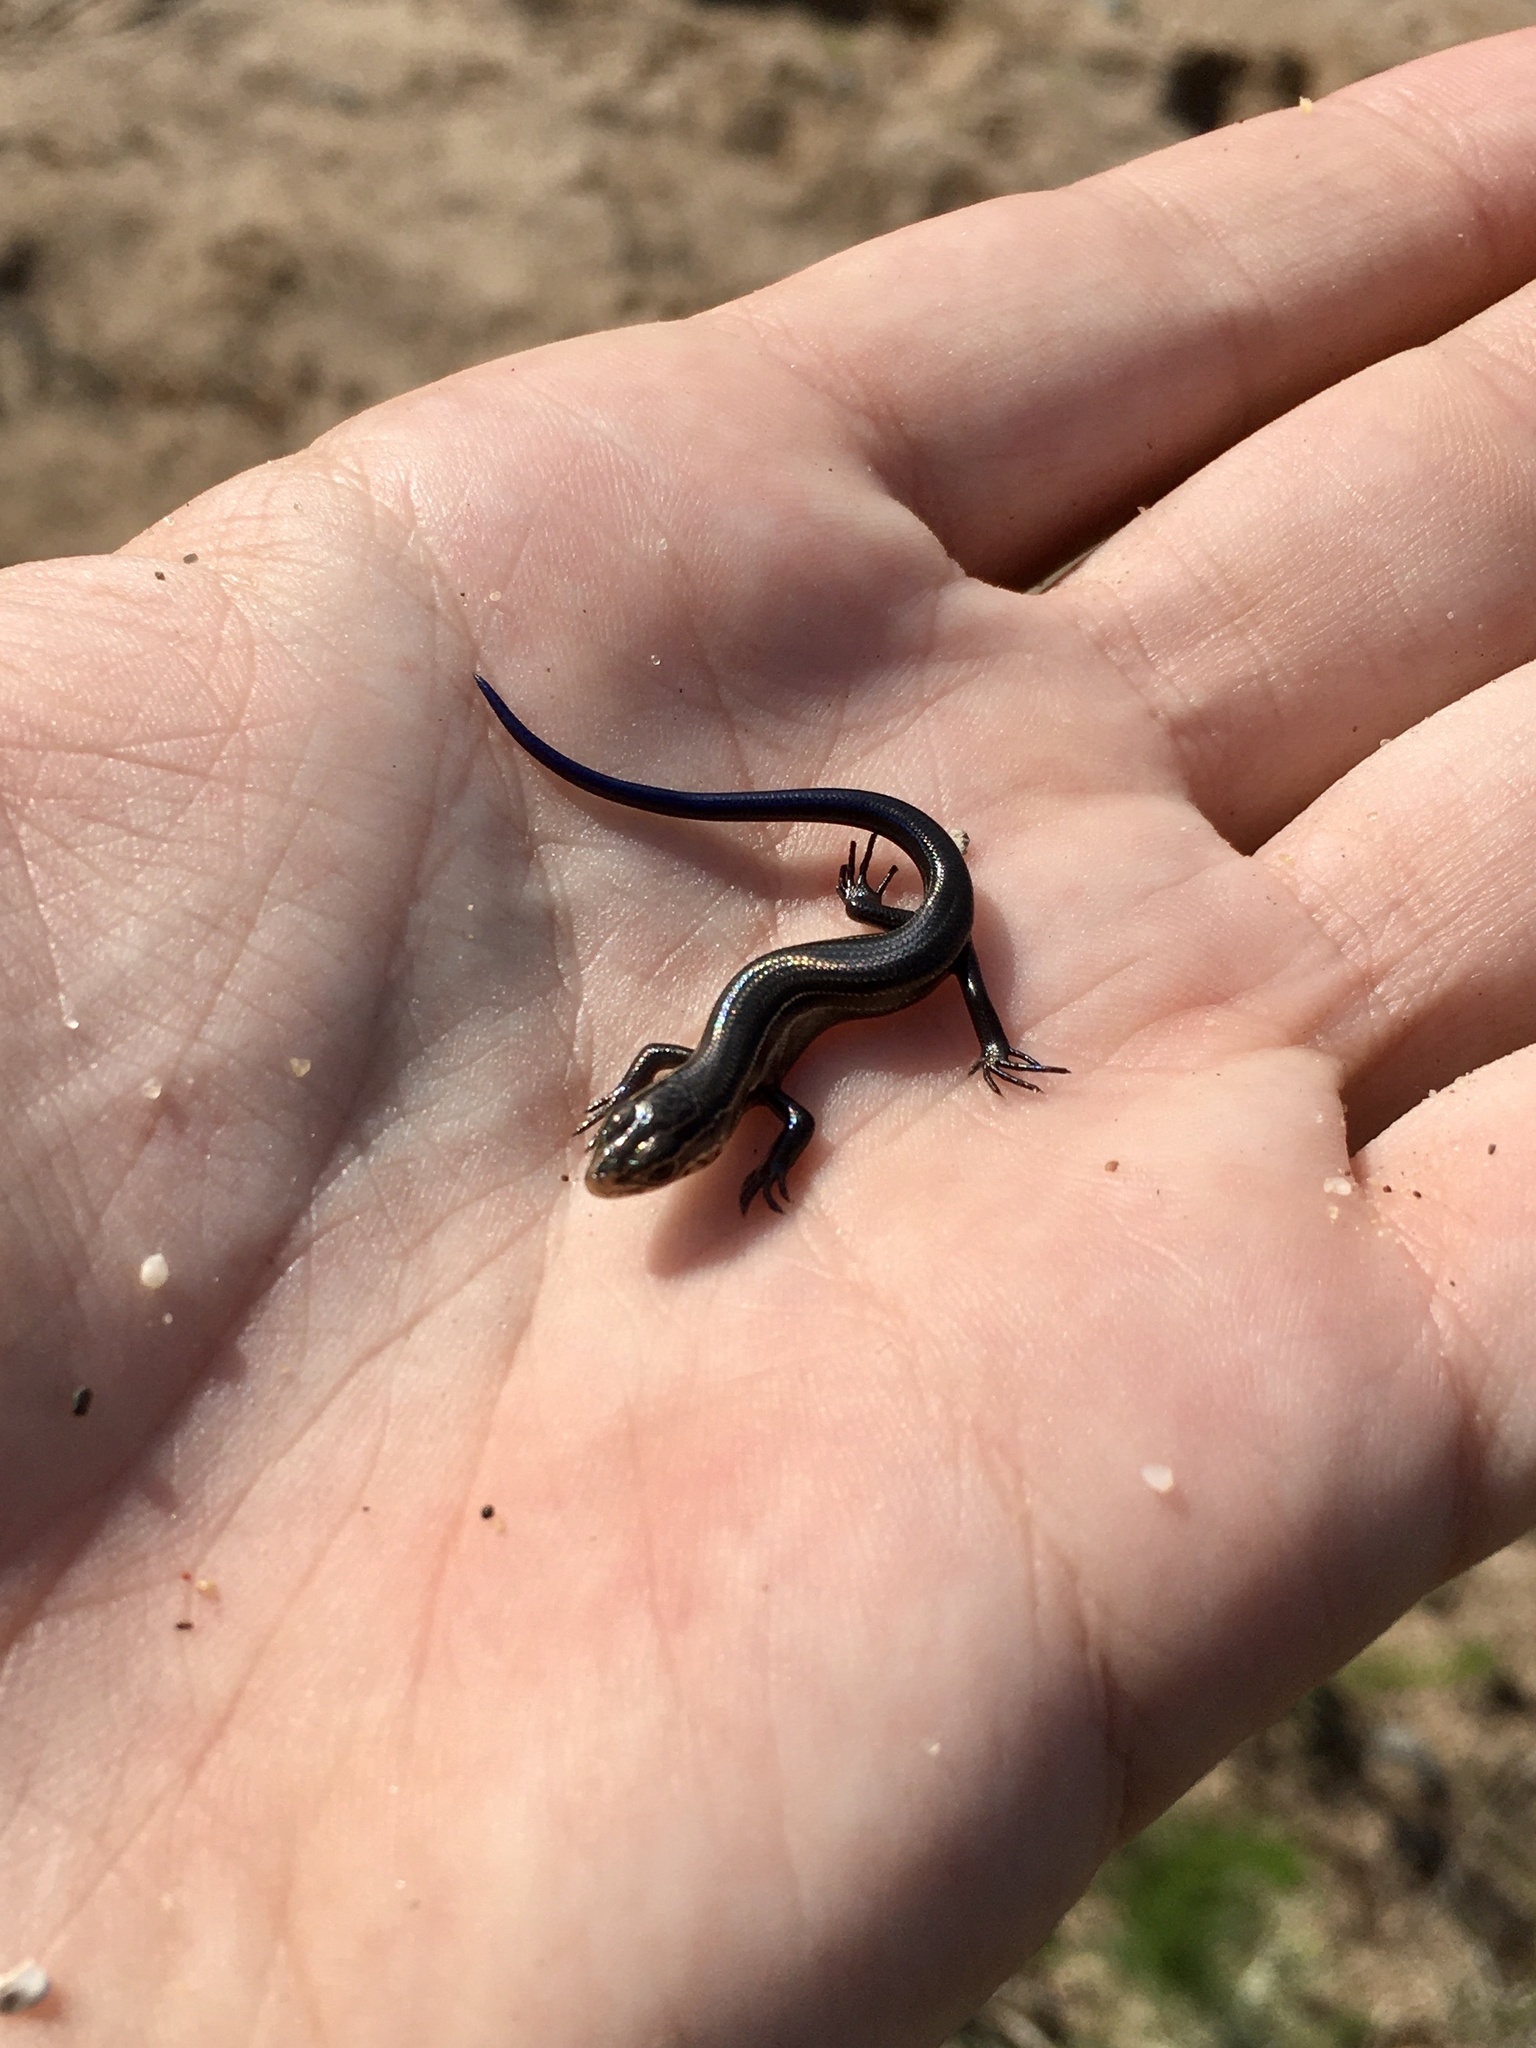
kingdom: Animalia
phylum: Chordata
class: Squamata
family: Scincidae
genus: Plestiodon
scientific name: Plestiodon septentrionalis
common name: Northern prairie skink
